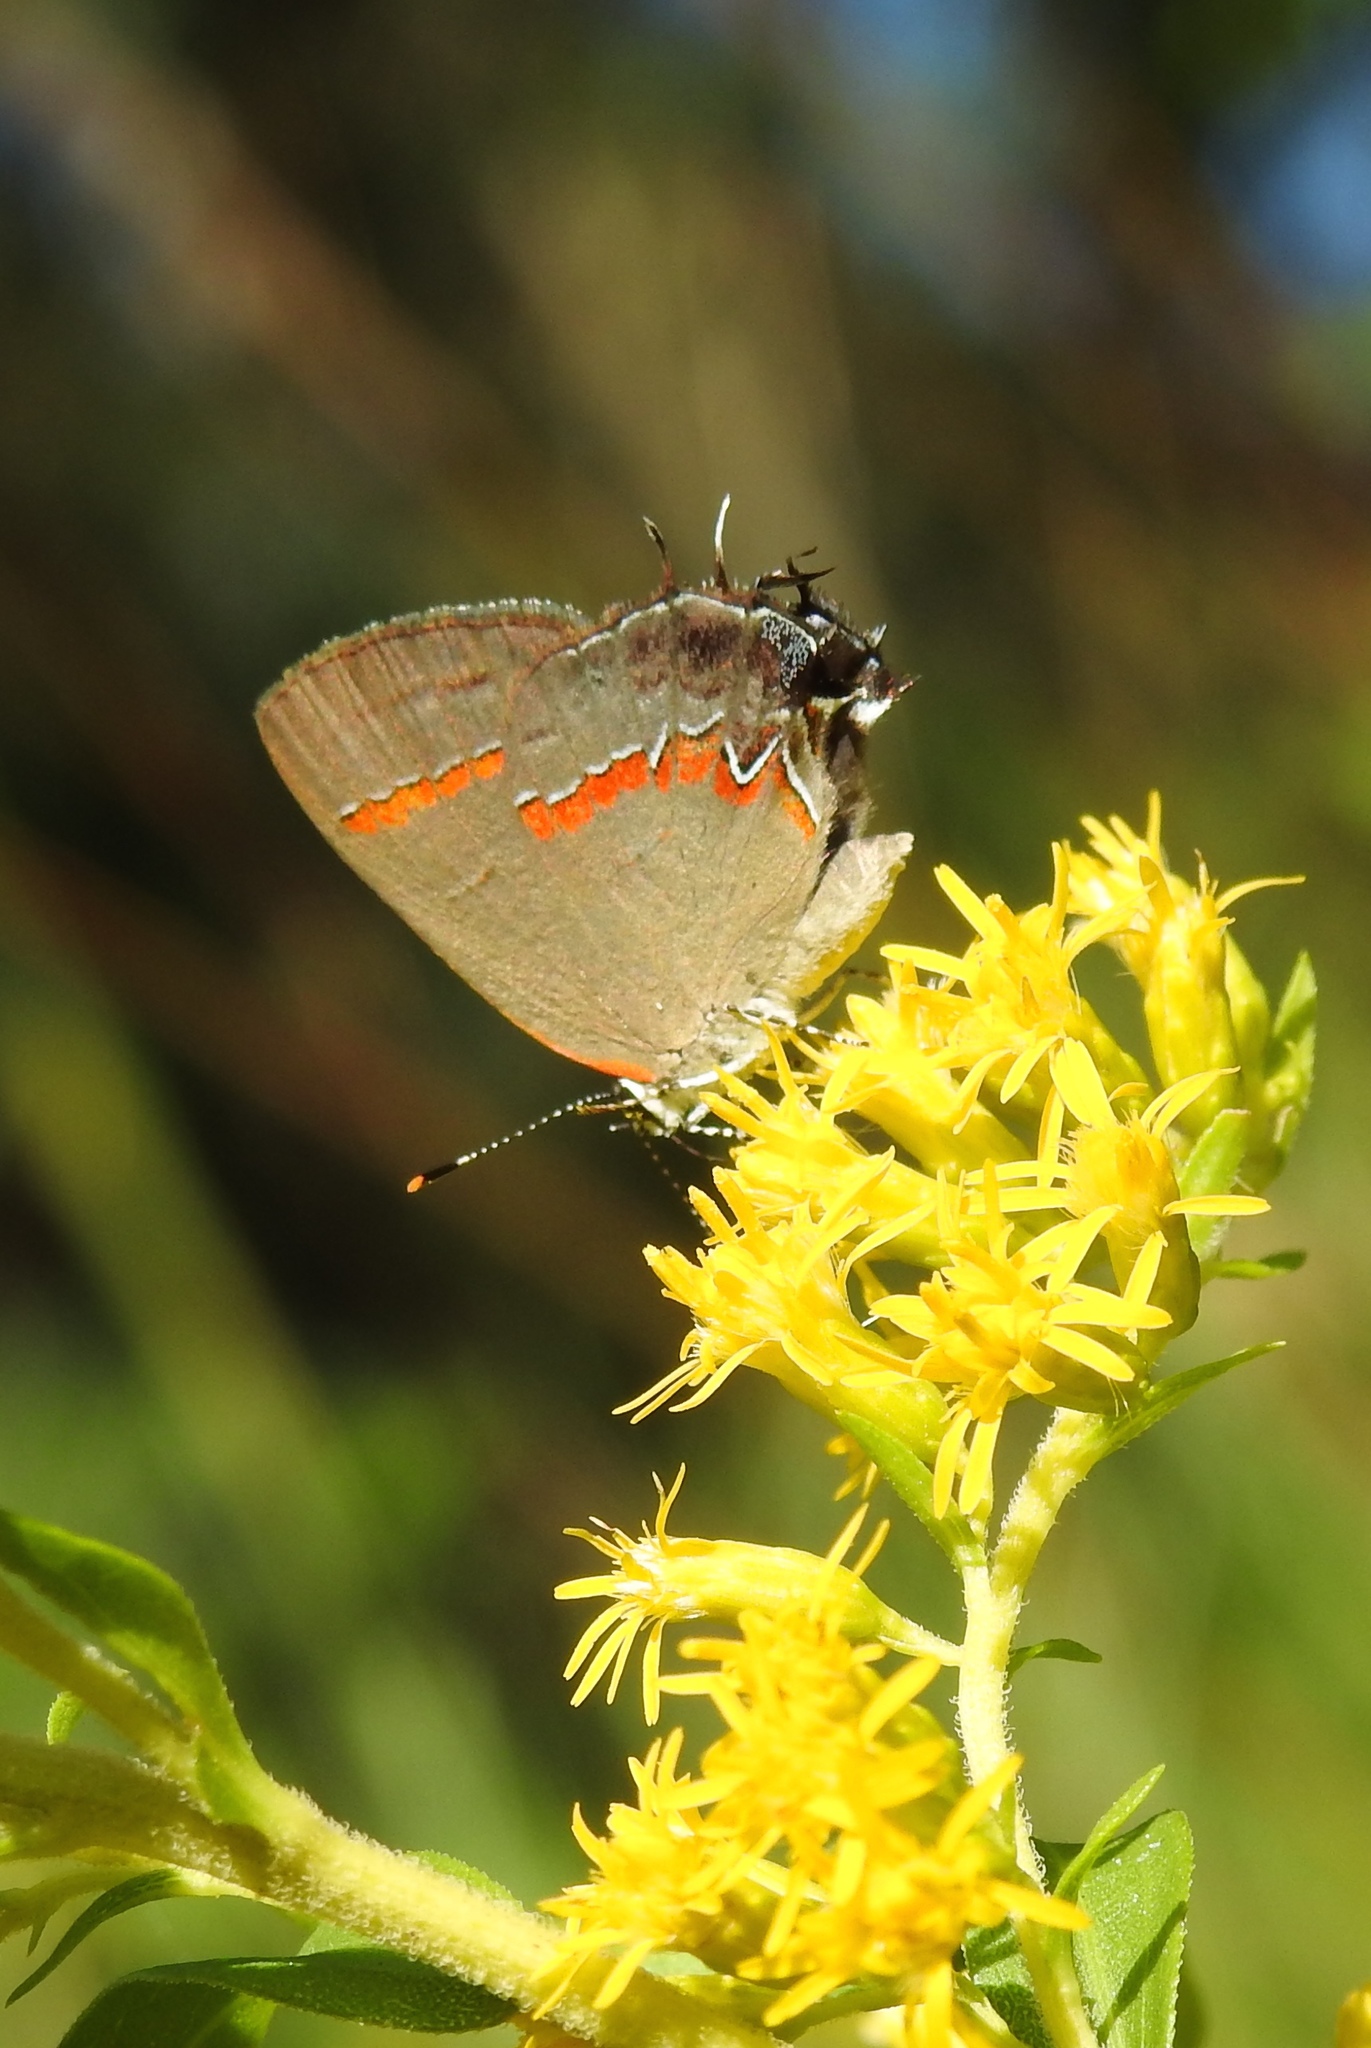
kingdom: Animalia
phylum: Arthropoda
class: Insecta
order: Lepidoptera
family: Lycaenidae
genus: Calycopis
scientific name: Calycopis cecrops
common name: Red-banded hairstreak
